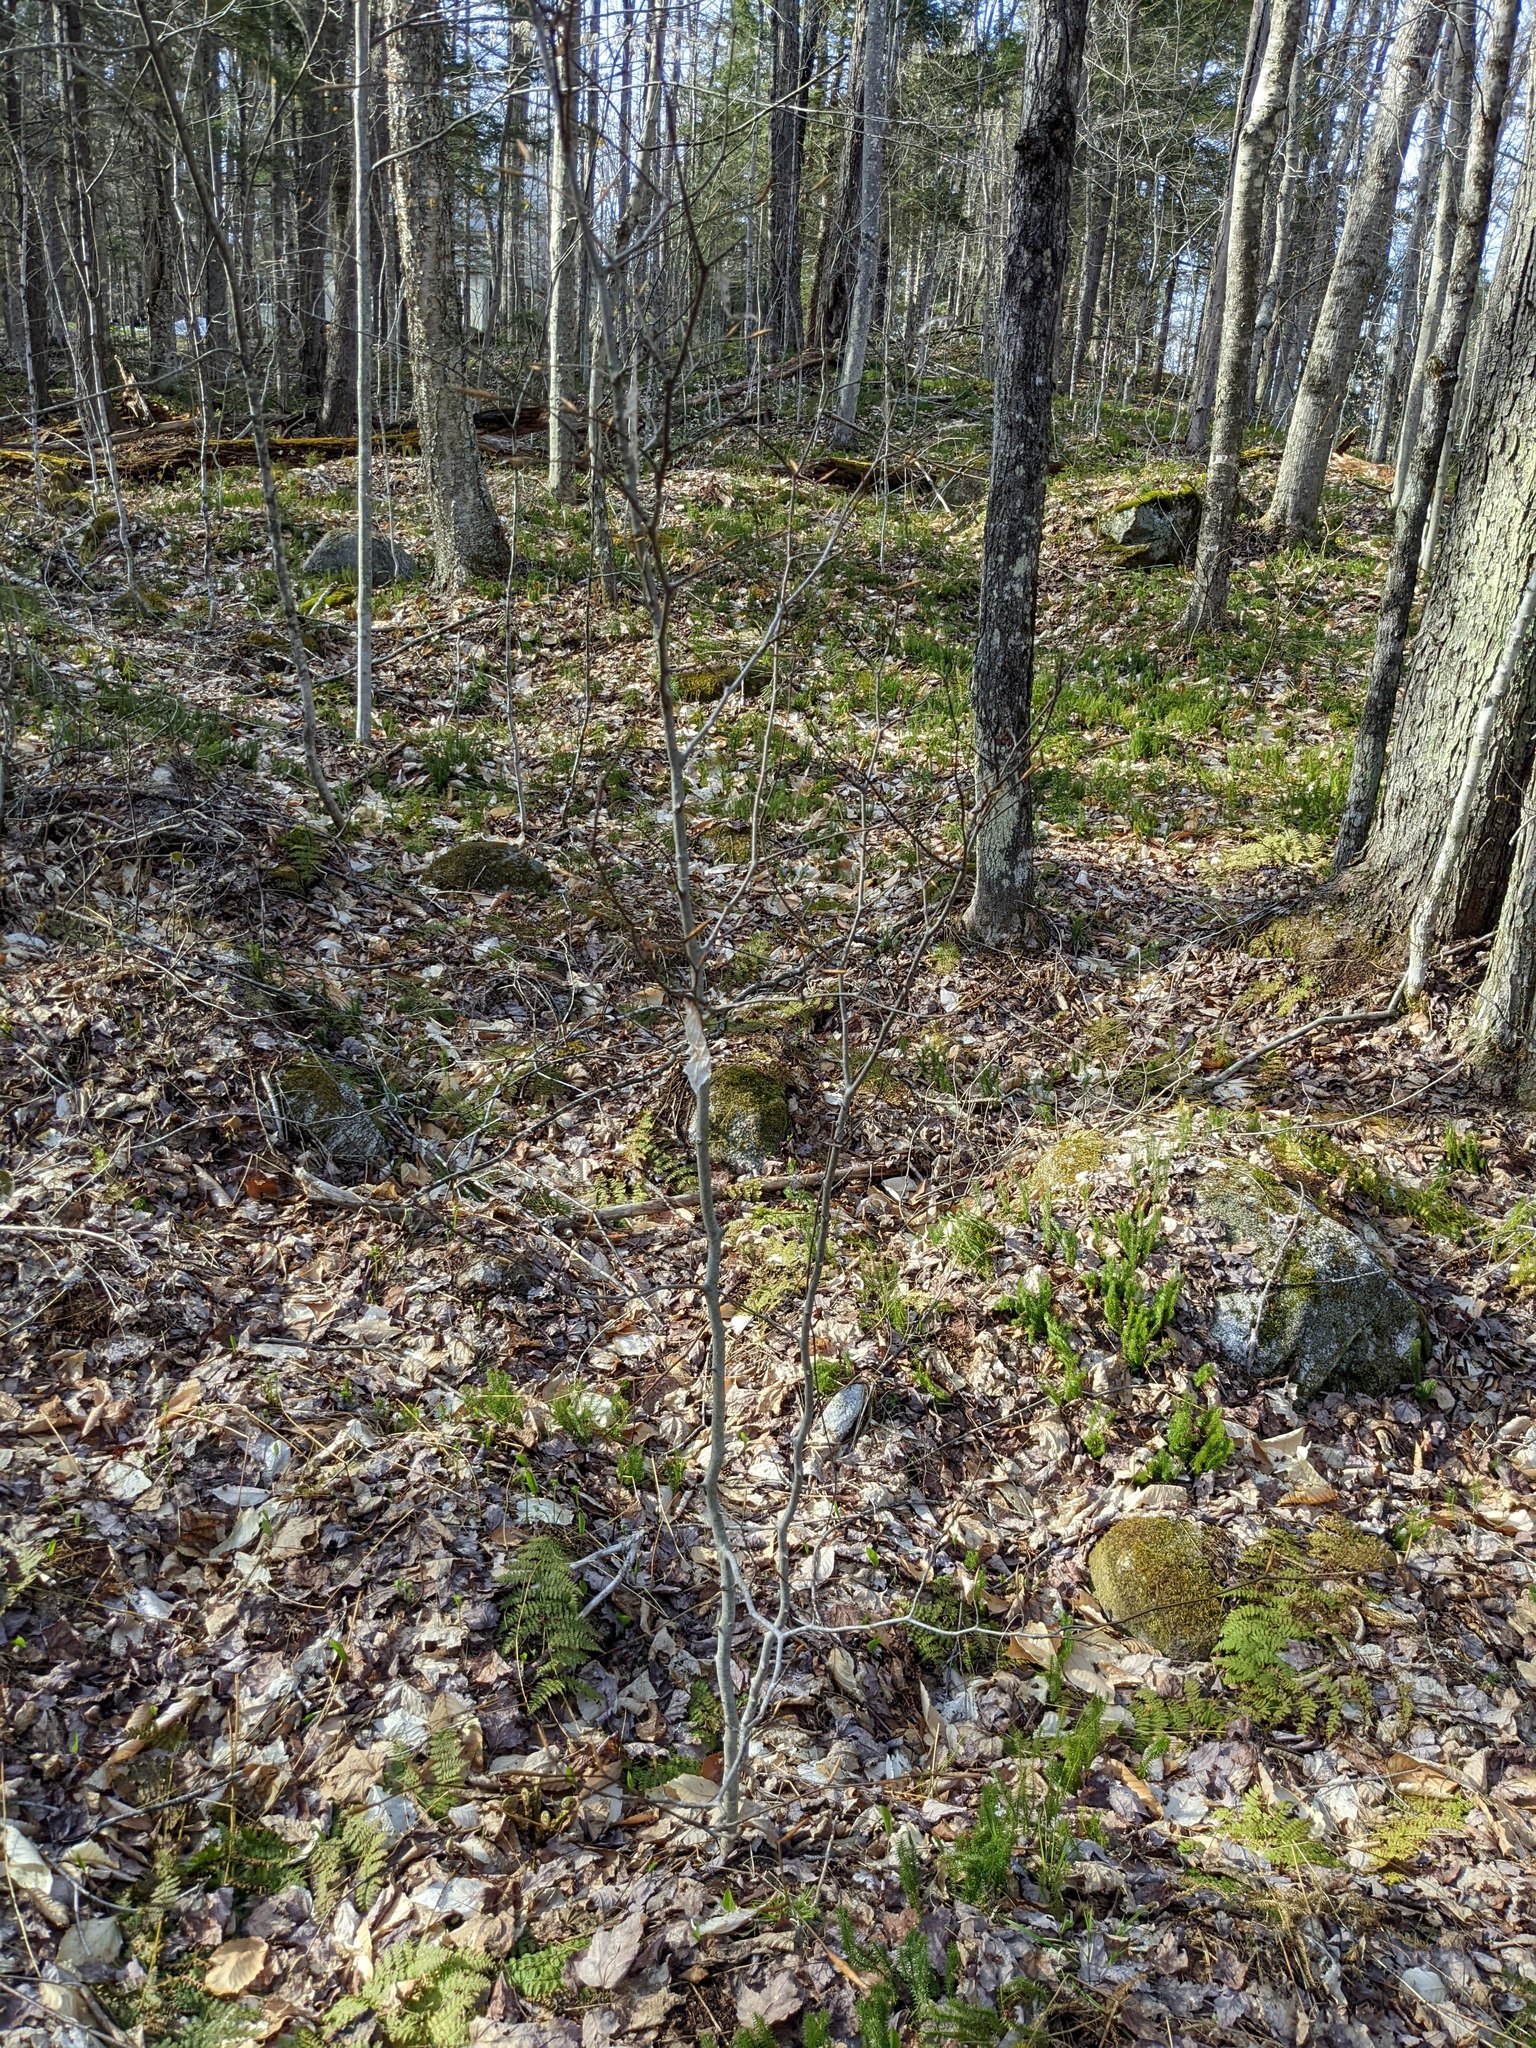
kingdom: Plantae
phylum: Tracheophyta
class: Magnoliopsida
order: Fagales
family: Fagaceae
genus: Fagus
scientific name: Fagus grandifolia
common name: American beech
